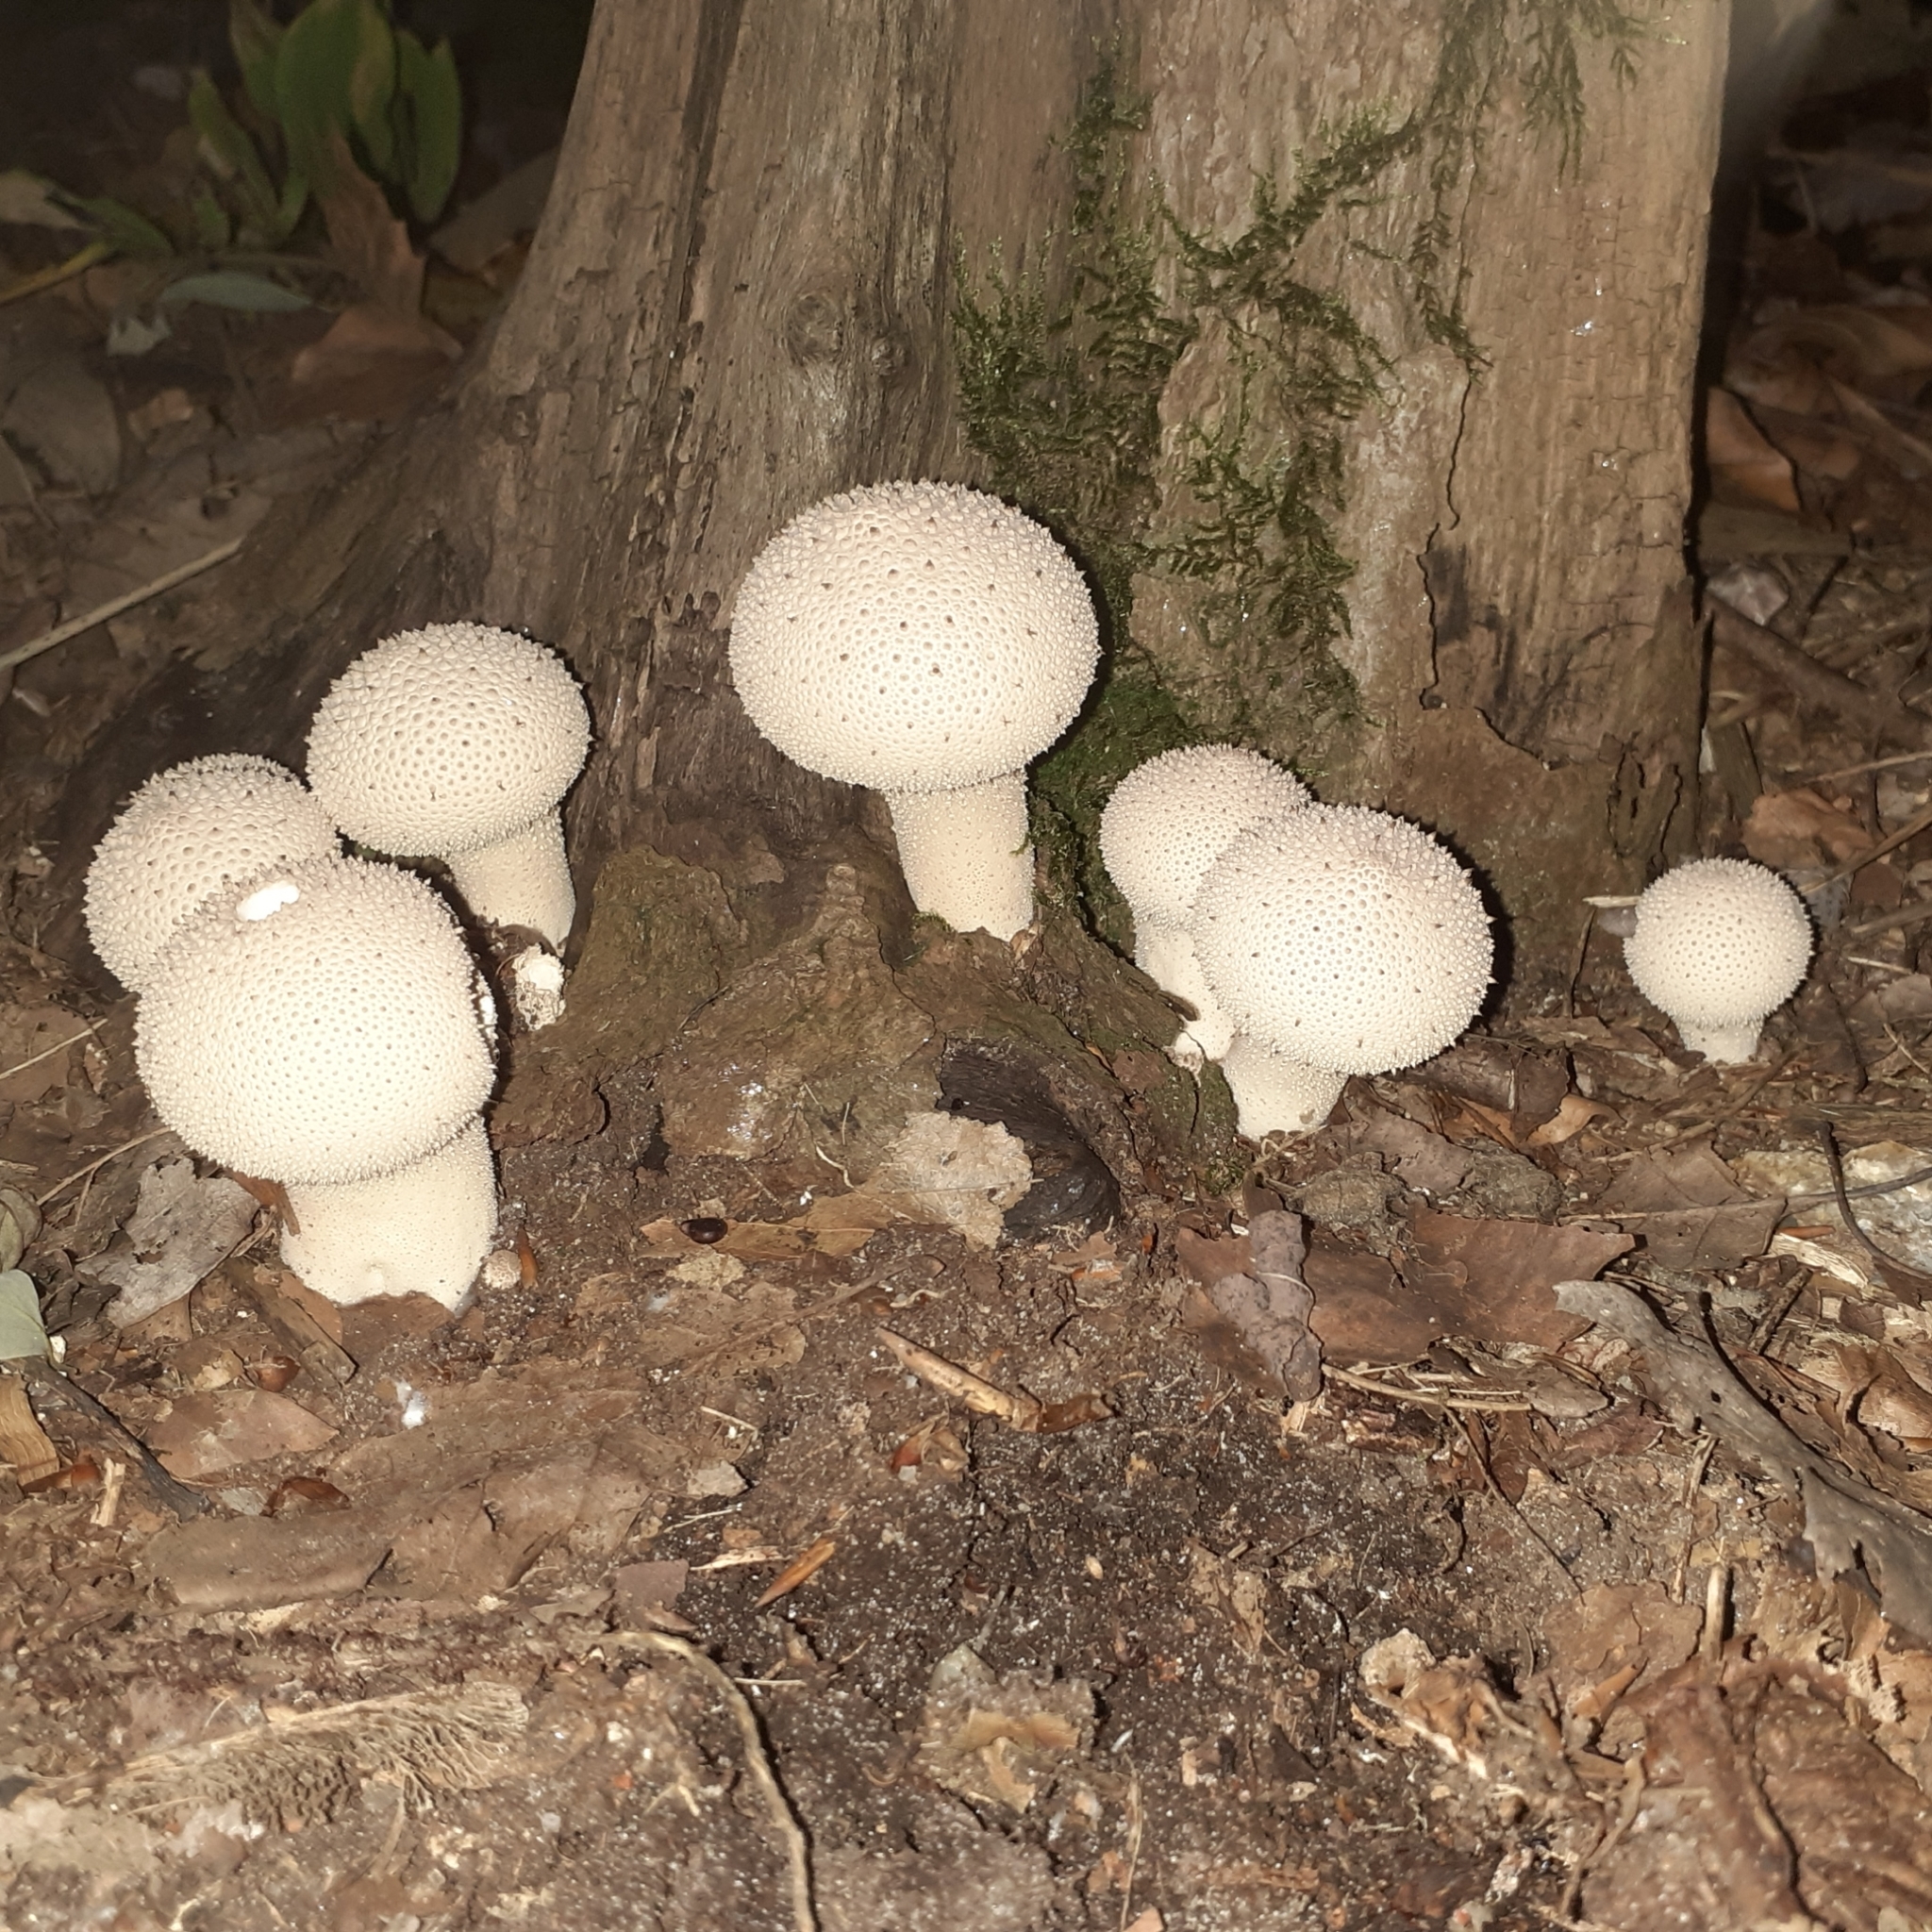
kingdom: Fungi
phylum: Basidiomycota
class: Agaricomycetes
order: Agaricales
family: Lycoperdaceae
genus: Lycoperdon
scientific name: Lycoperdon perlatum
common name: Common puffball
